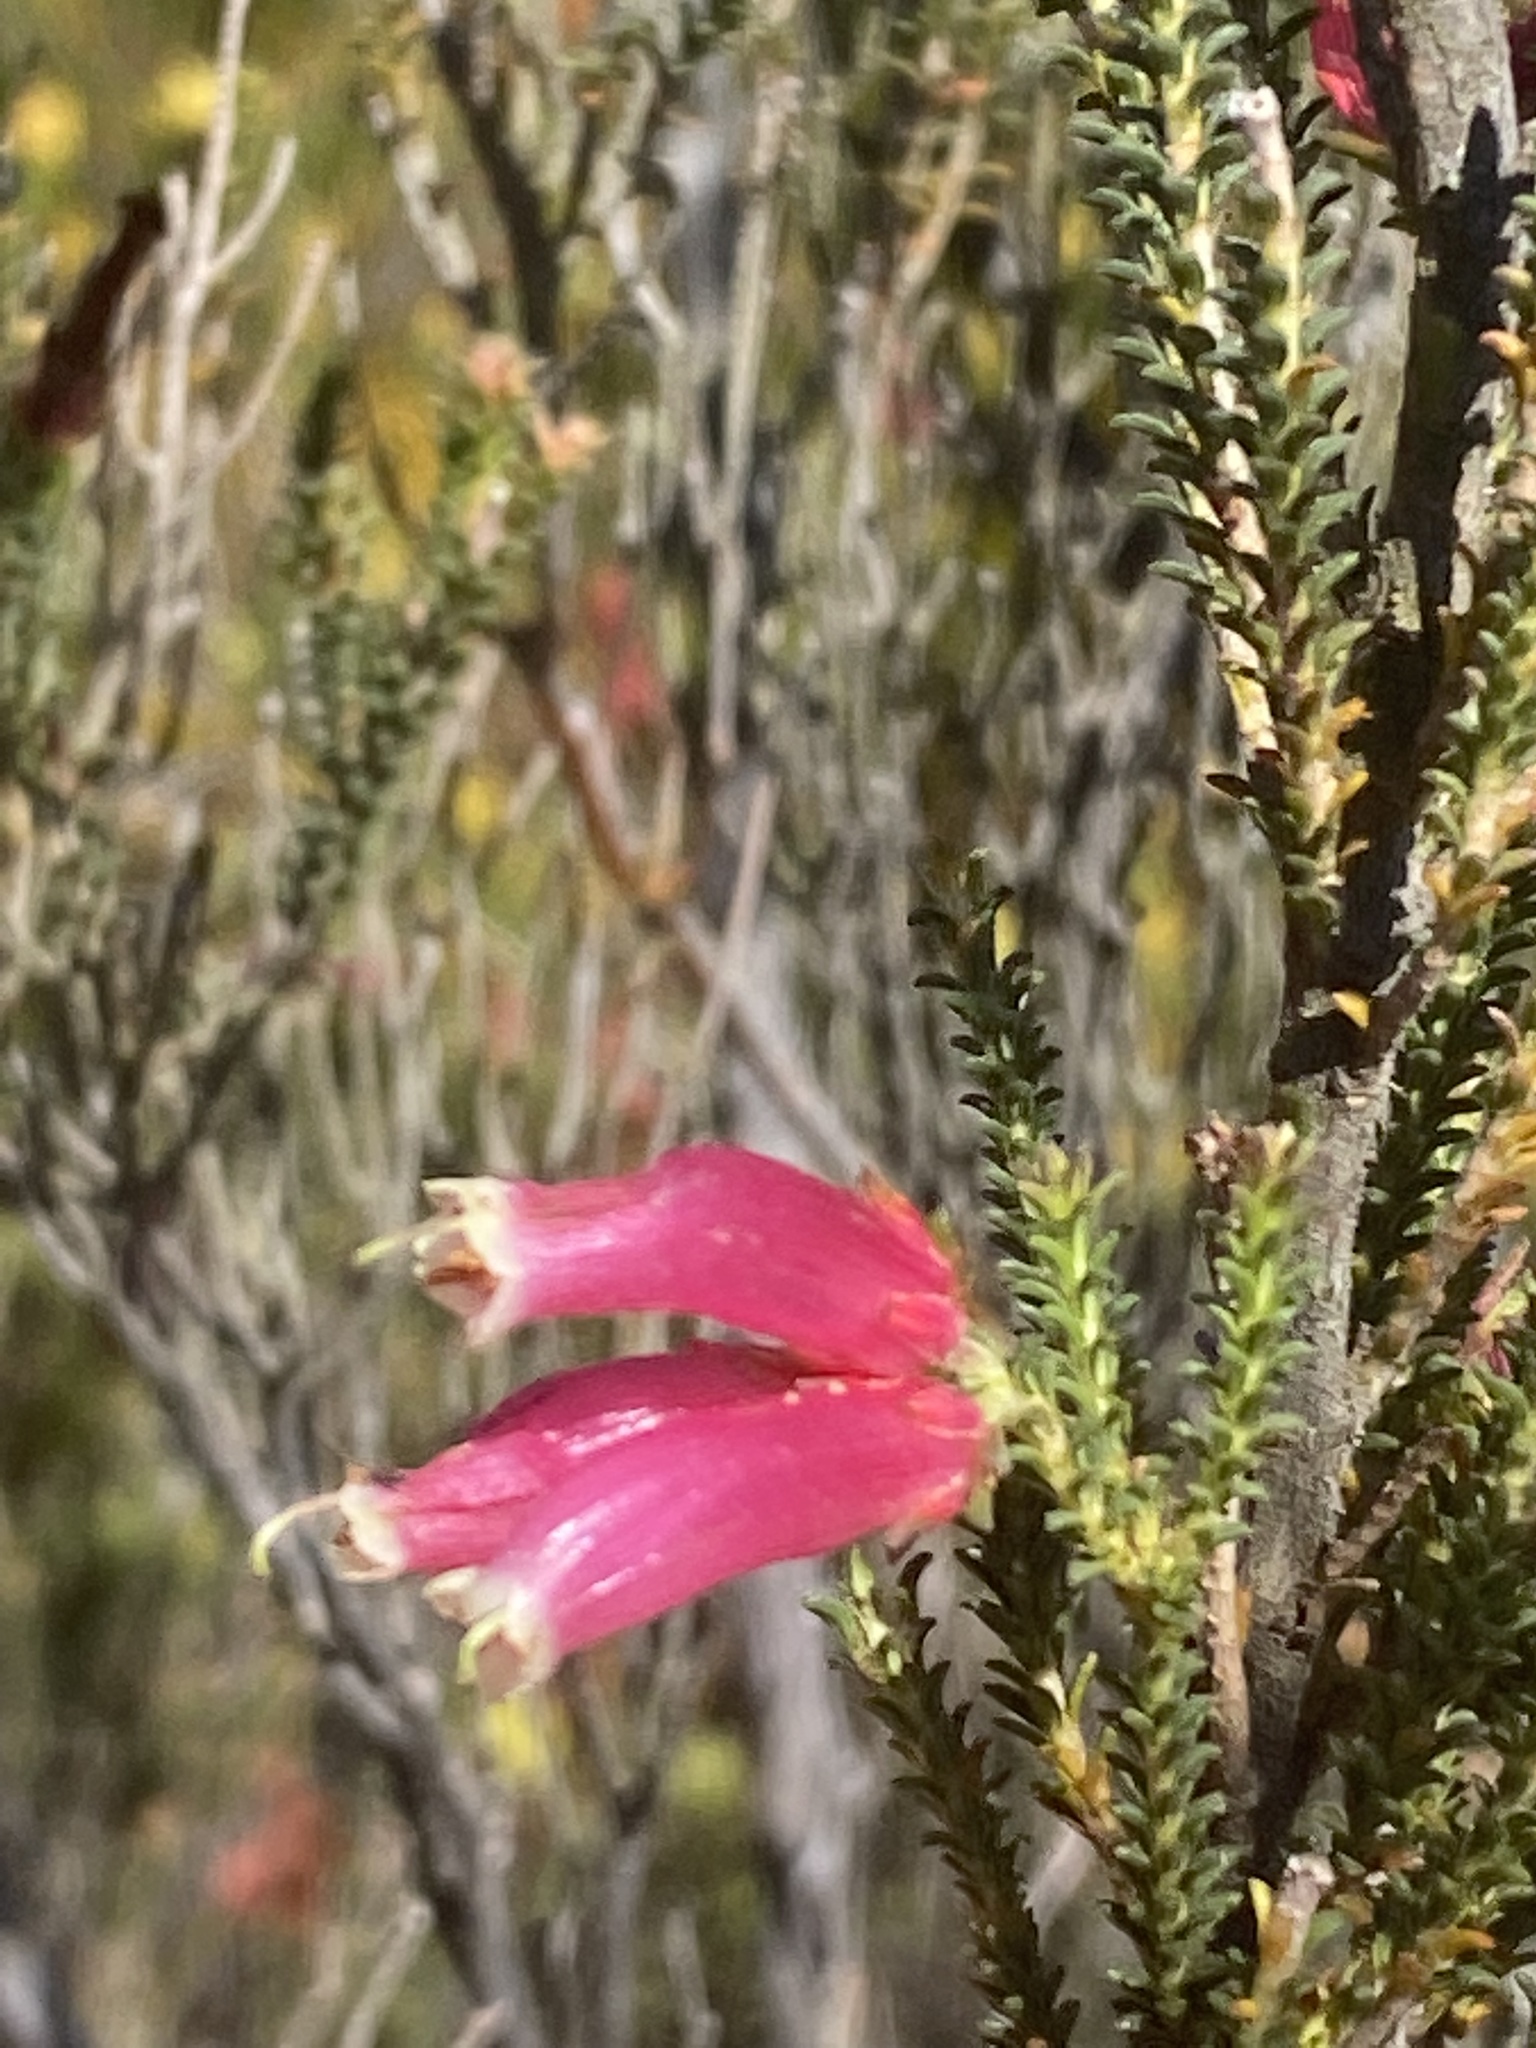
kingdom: Plantae
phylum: Tracheophyta
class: Magnoliopsida
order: Ericales
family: Ericaceae
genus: Erica
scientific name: Erica versicolor
